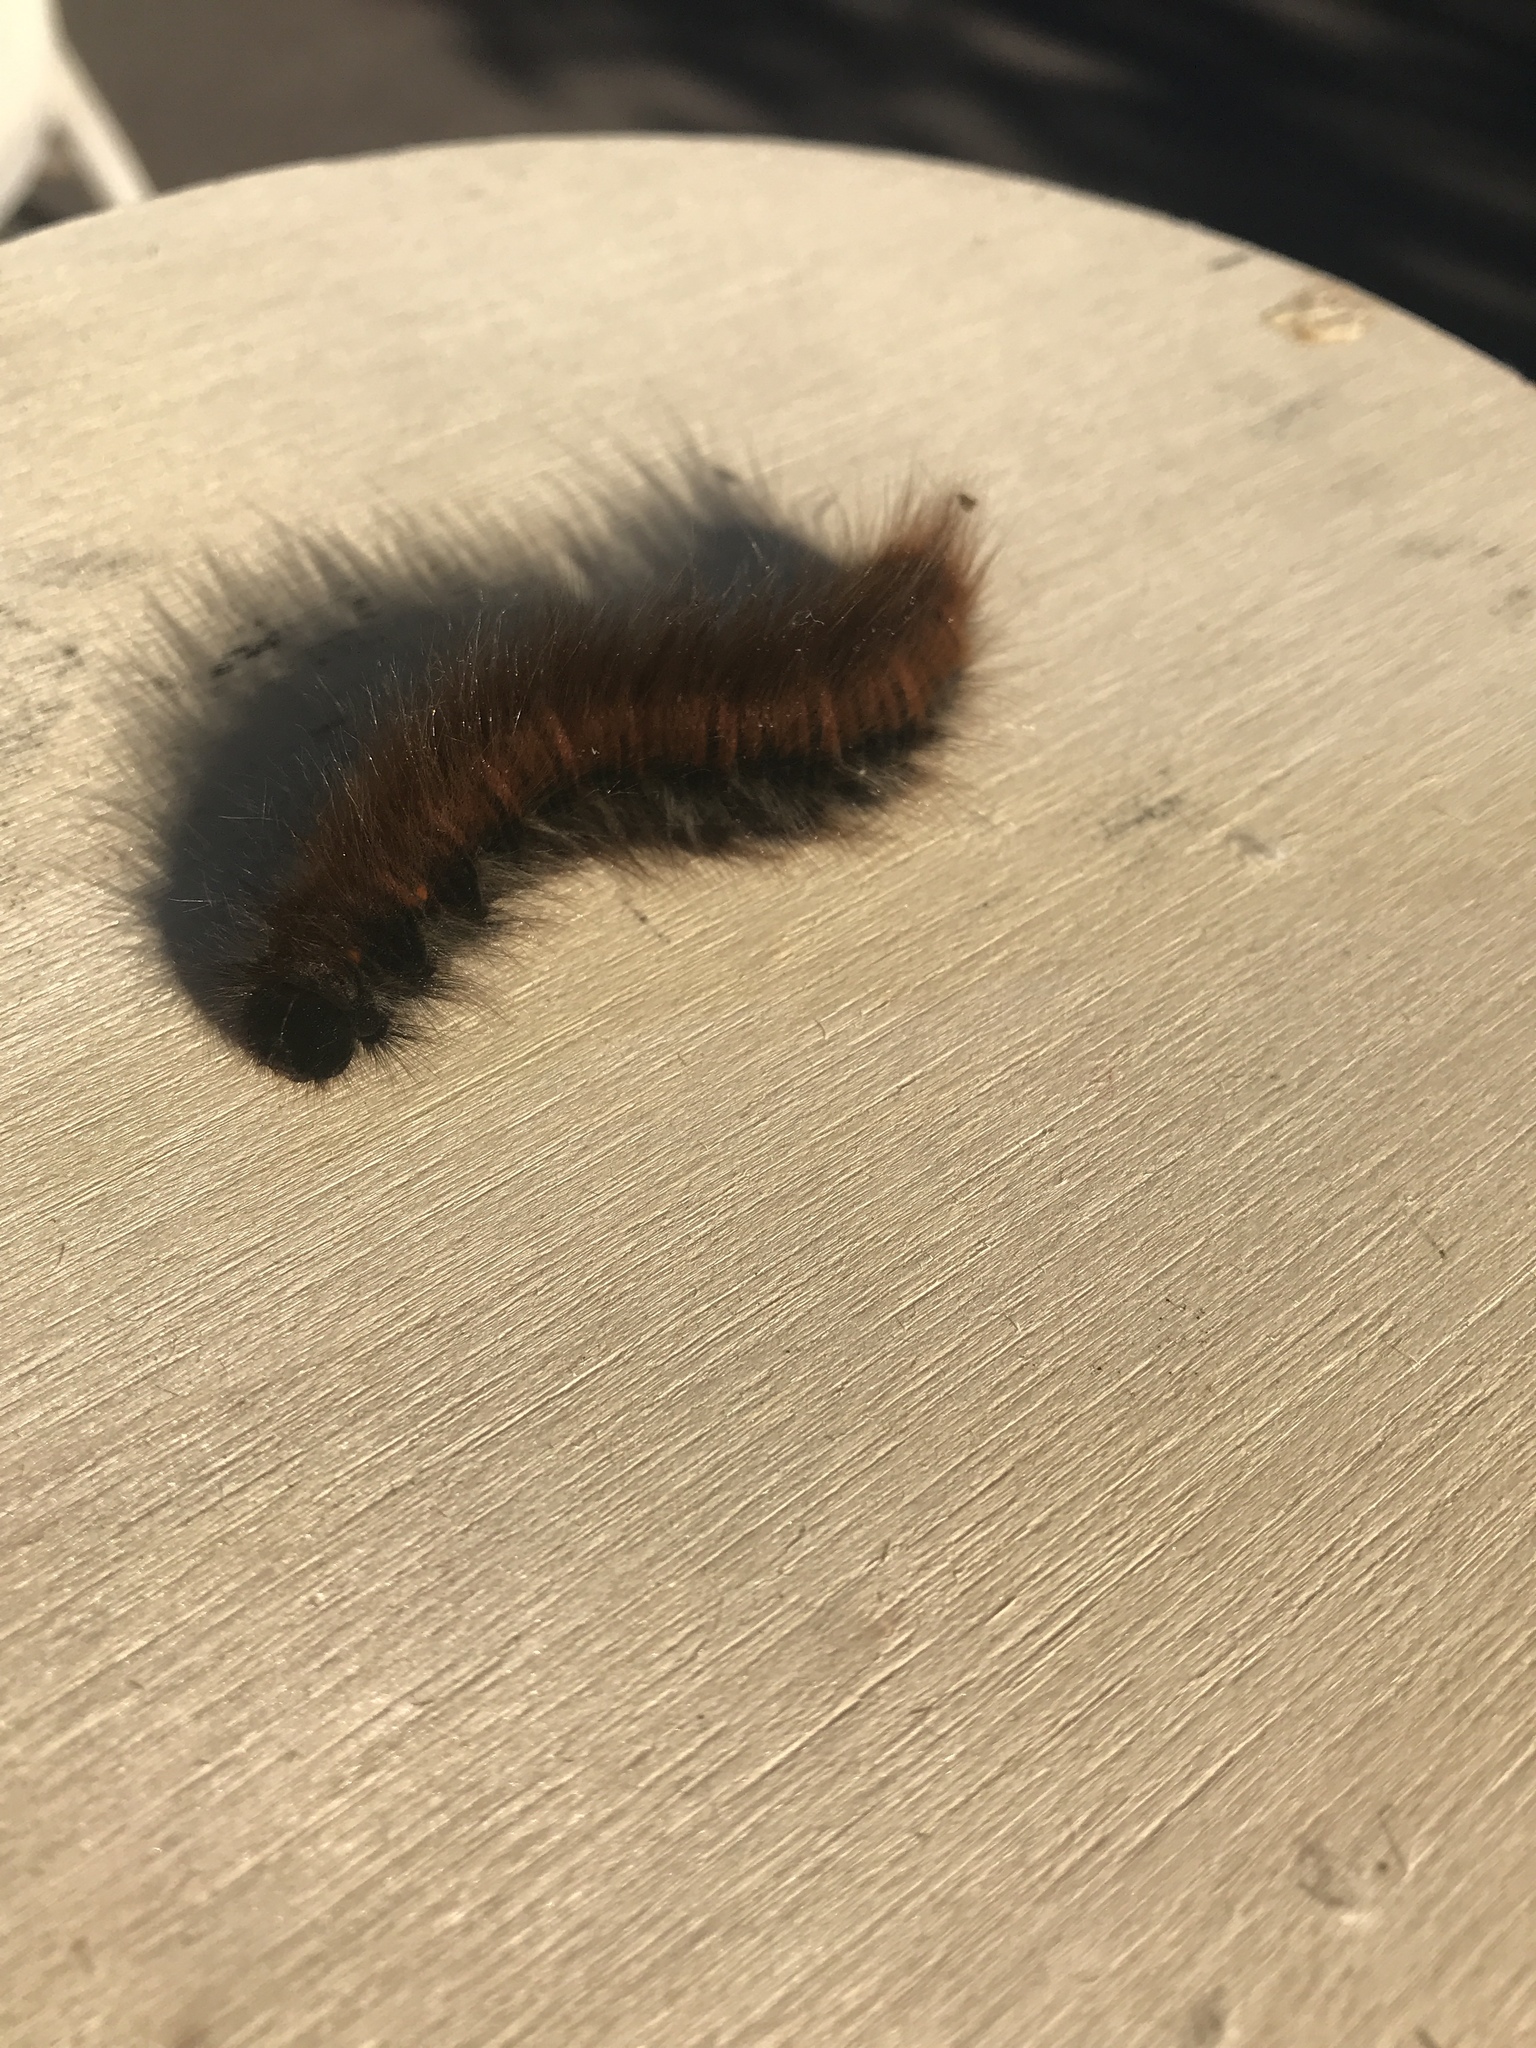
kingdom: Animalia
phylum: Arthropoda
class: Insecta
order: Lepidoptera
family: Lasiocampidae
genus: Macrothylacia
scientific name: Macrothylacia rubi
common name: Fox moth
